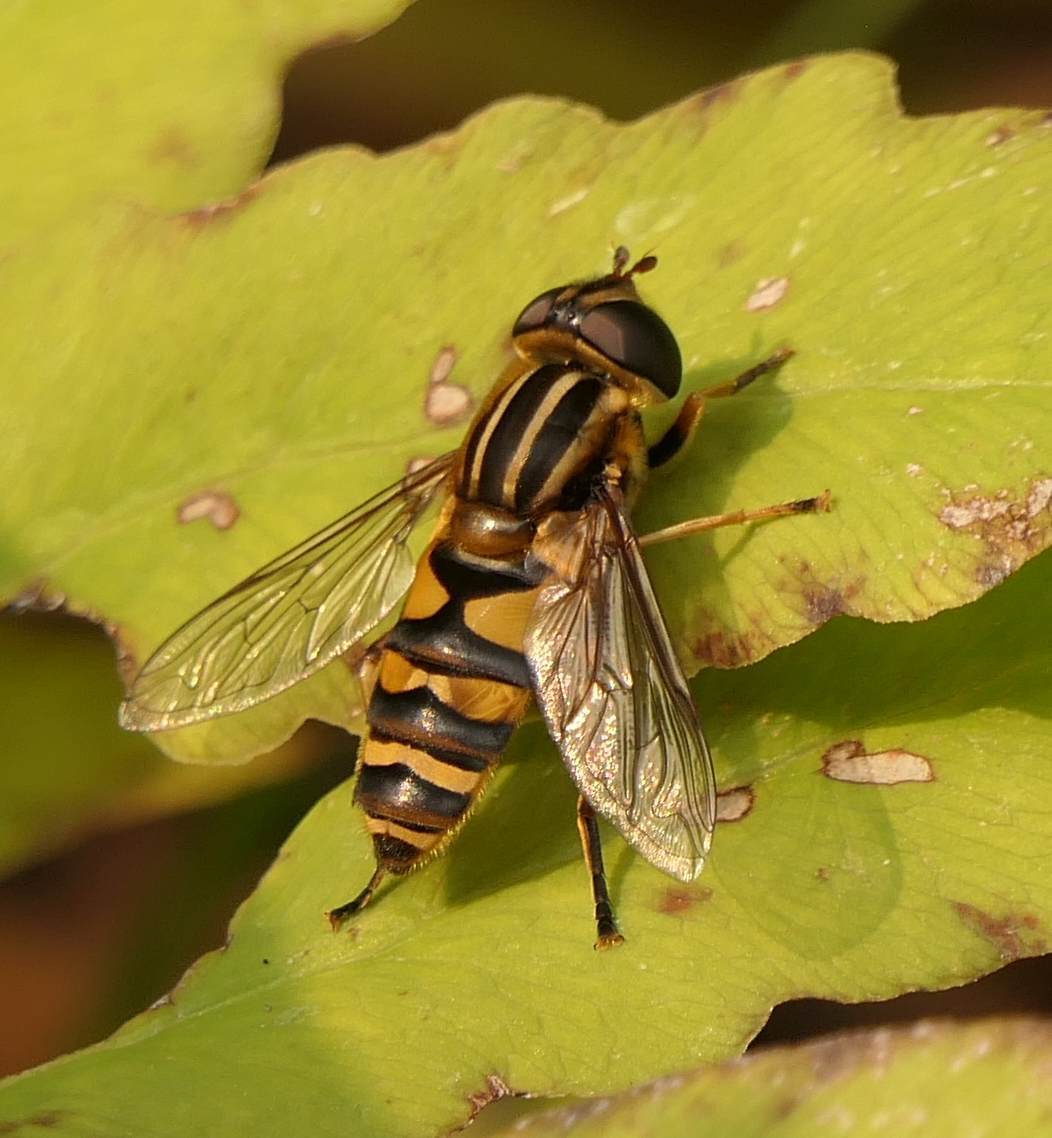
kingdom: Animalia
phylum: Arthropoda
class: Insecta
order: Diptera
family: Syrphidae
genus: Helophilus
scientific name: Helophilus fasciatus
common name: Narrow-headed marsh fly
